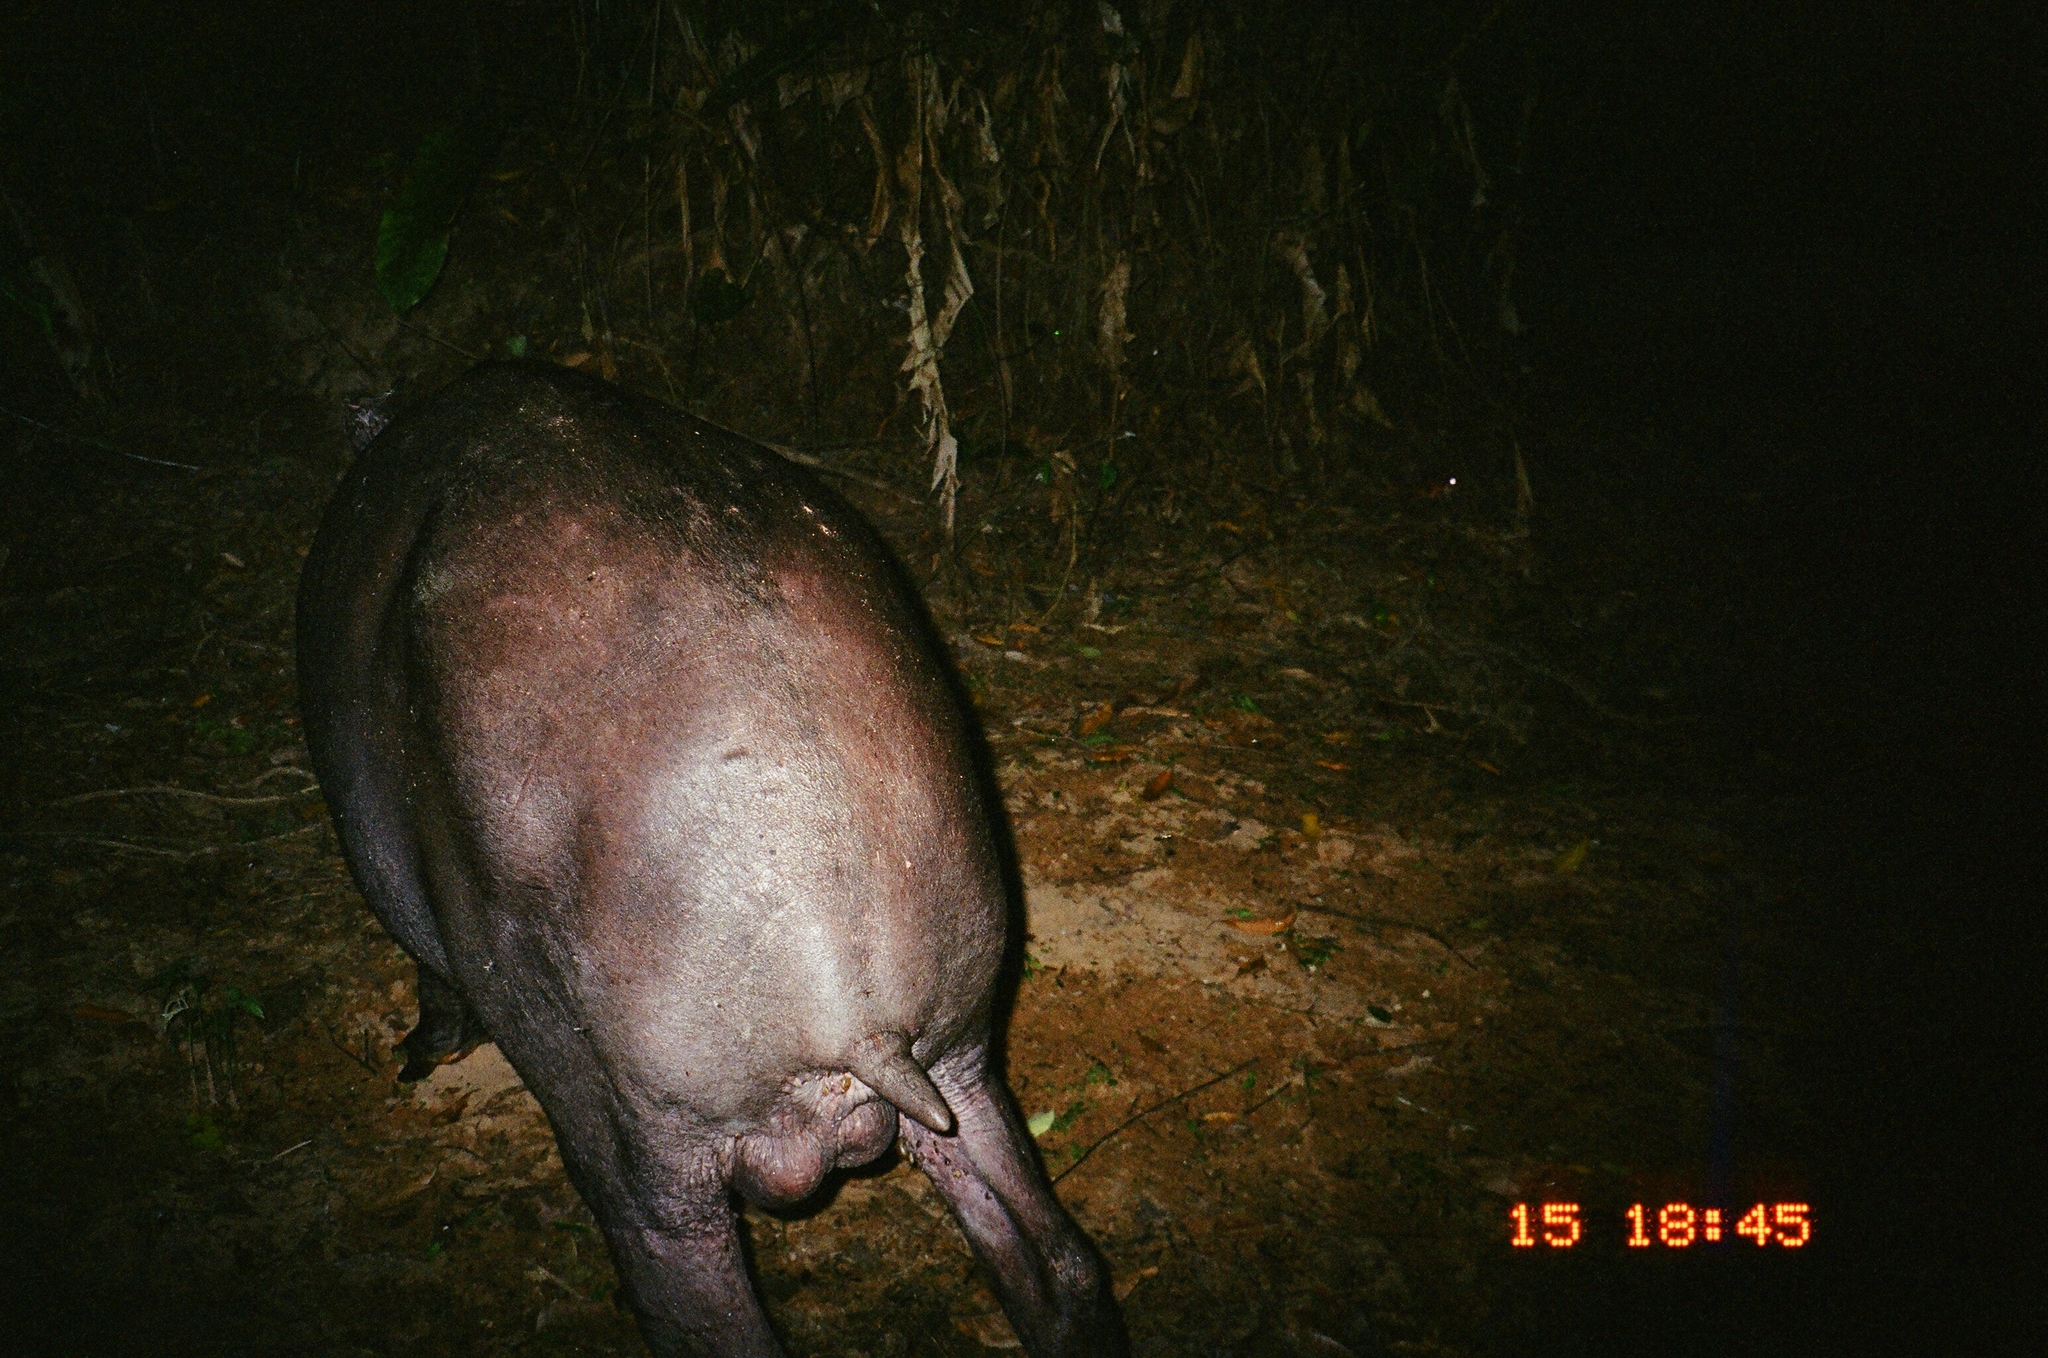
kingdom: Animalia
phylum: Chordata
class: Mammalia
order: Perissodactyla
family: Tapiridae
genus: Tapirus
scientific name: Tapirus terrestris
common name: Brazilian tapir
